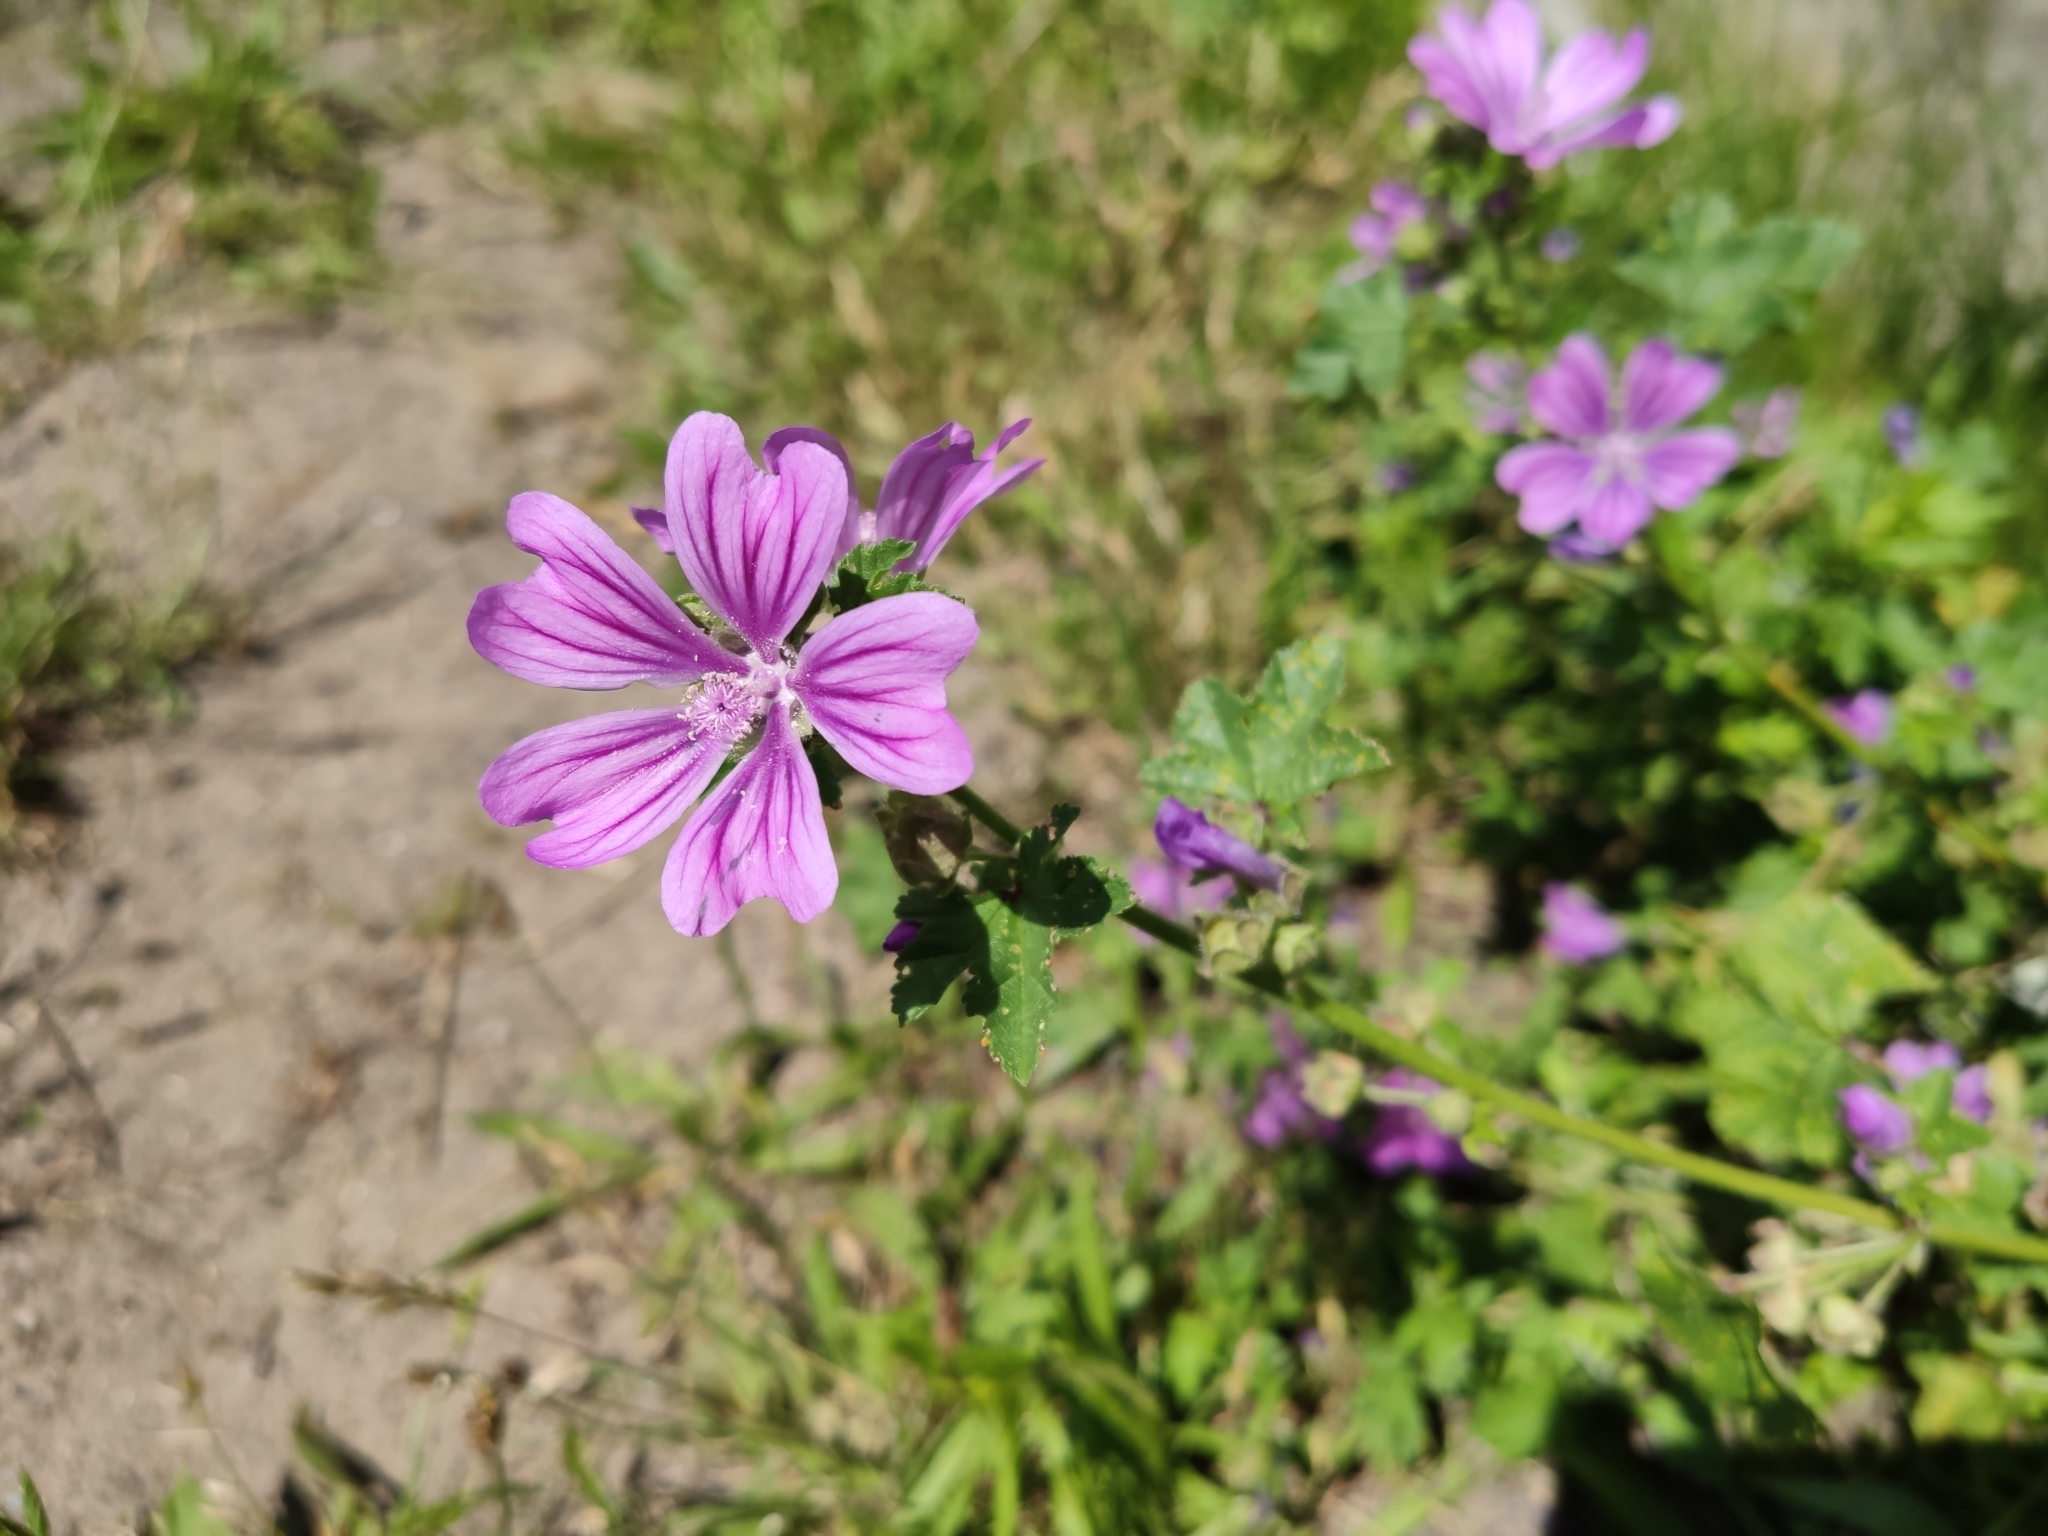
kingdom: Plantae
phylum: Tracheophyta
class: Magnoliopsida
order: Malvales
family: Malvaceae
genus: Malva
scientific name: Malva sylvestris
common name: Common mallow
